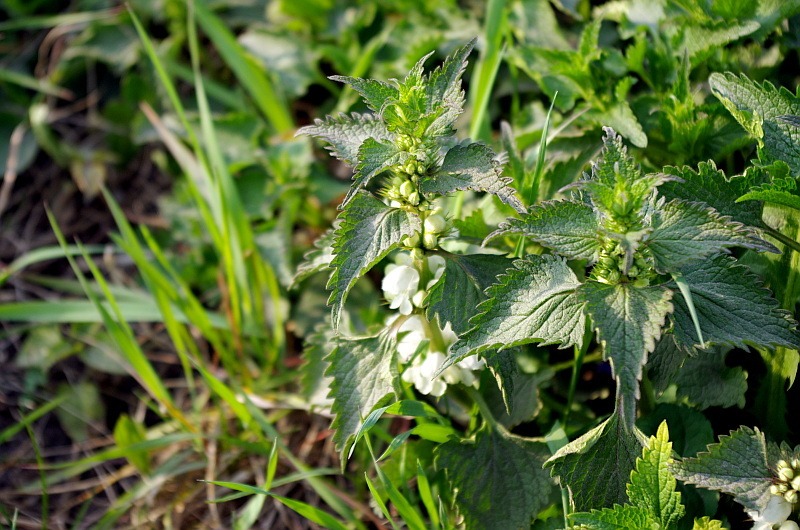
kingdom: Plantae
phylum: Tracheophyta
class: Magnoliopsida
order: Lamiales
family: Lamiaceae
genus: Lamium
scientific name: Lamium album
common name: White dead-nettle
